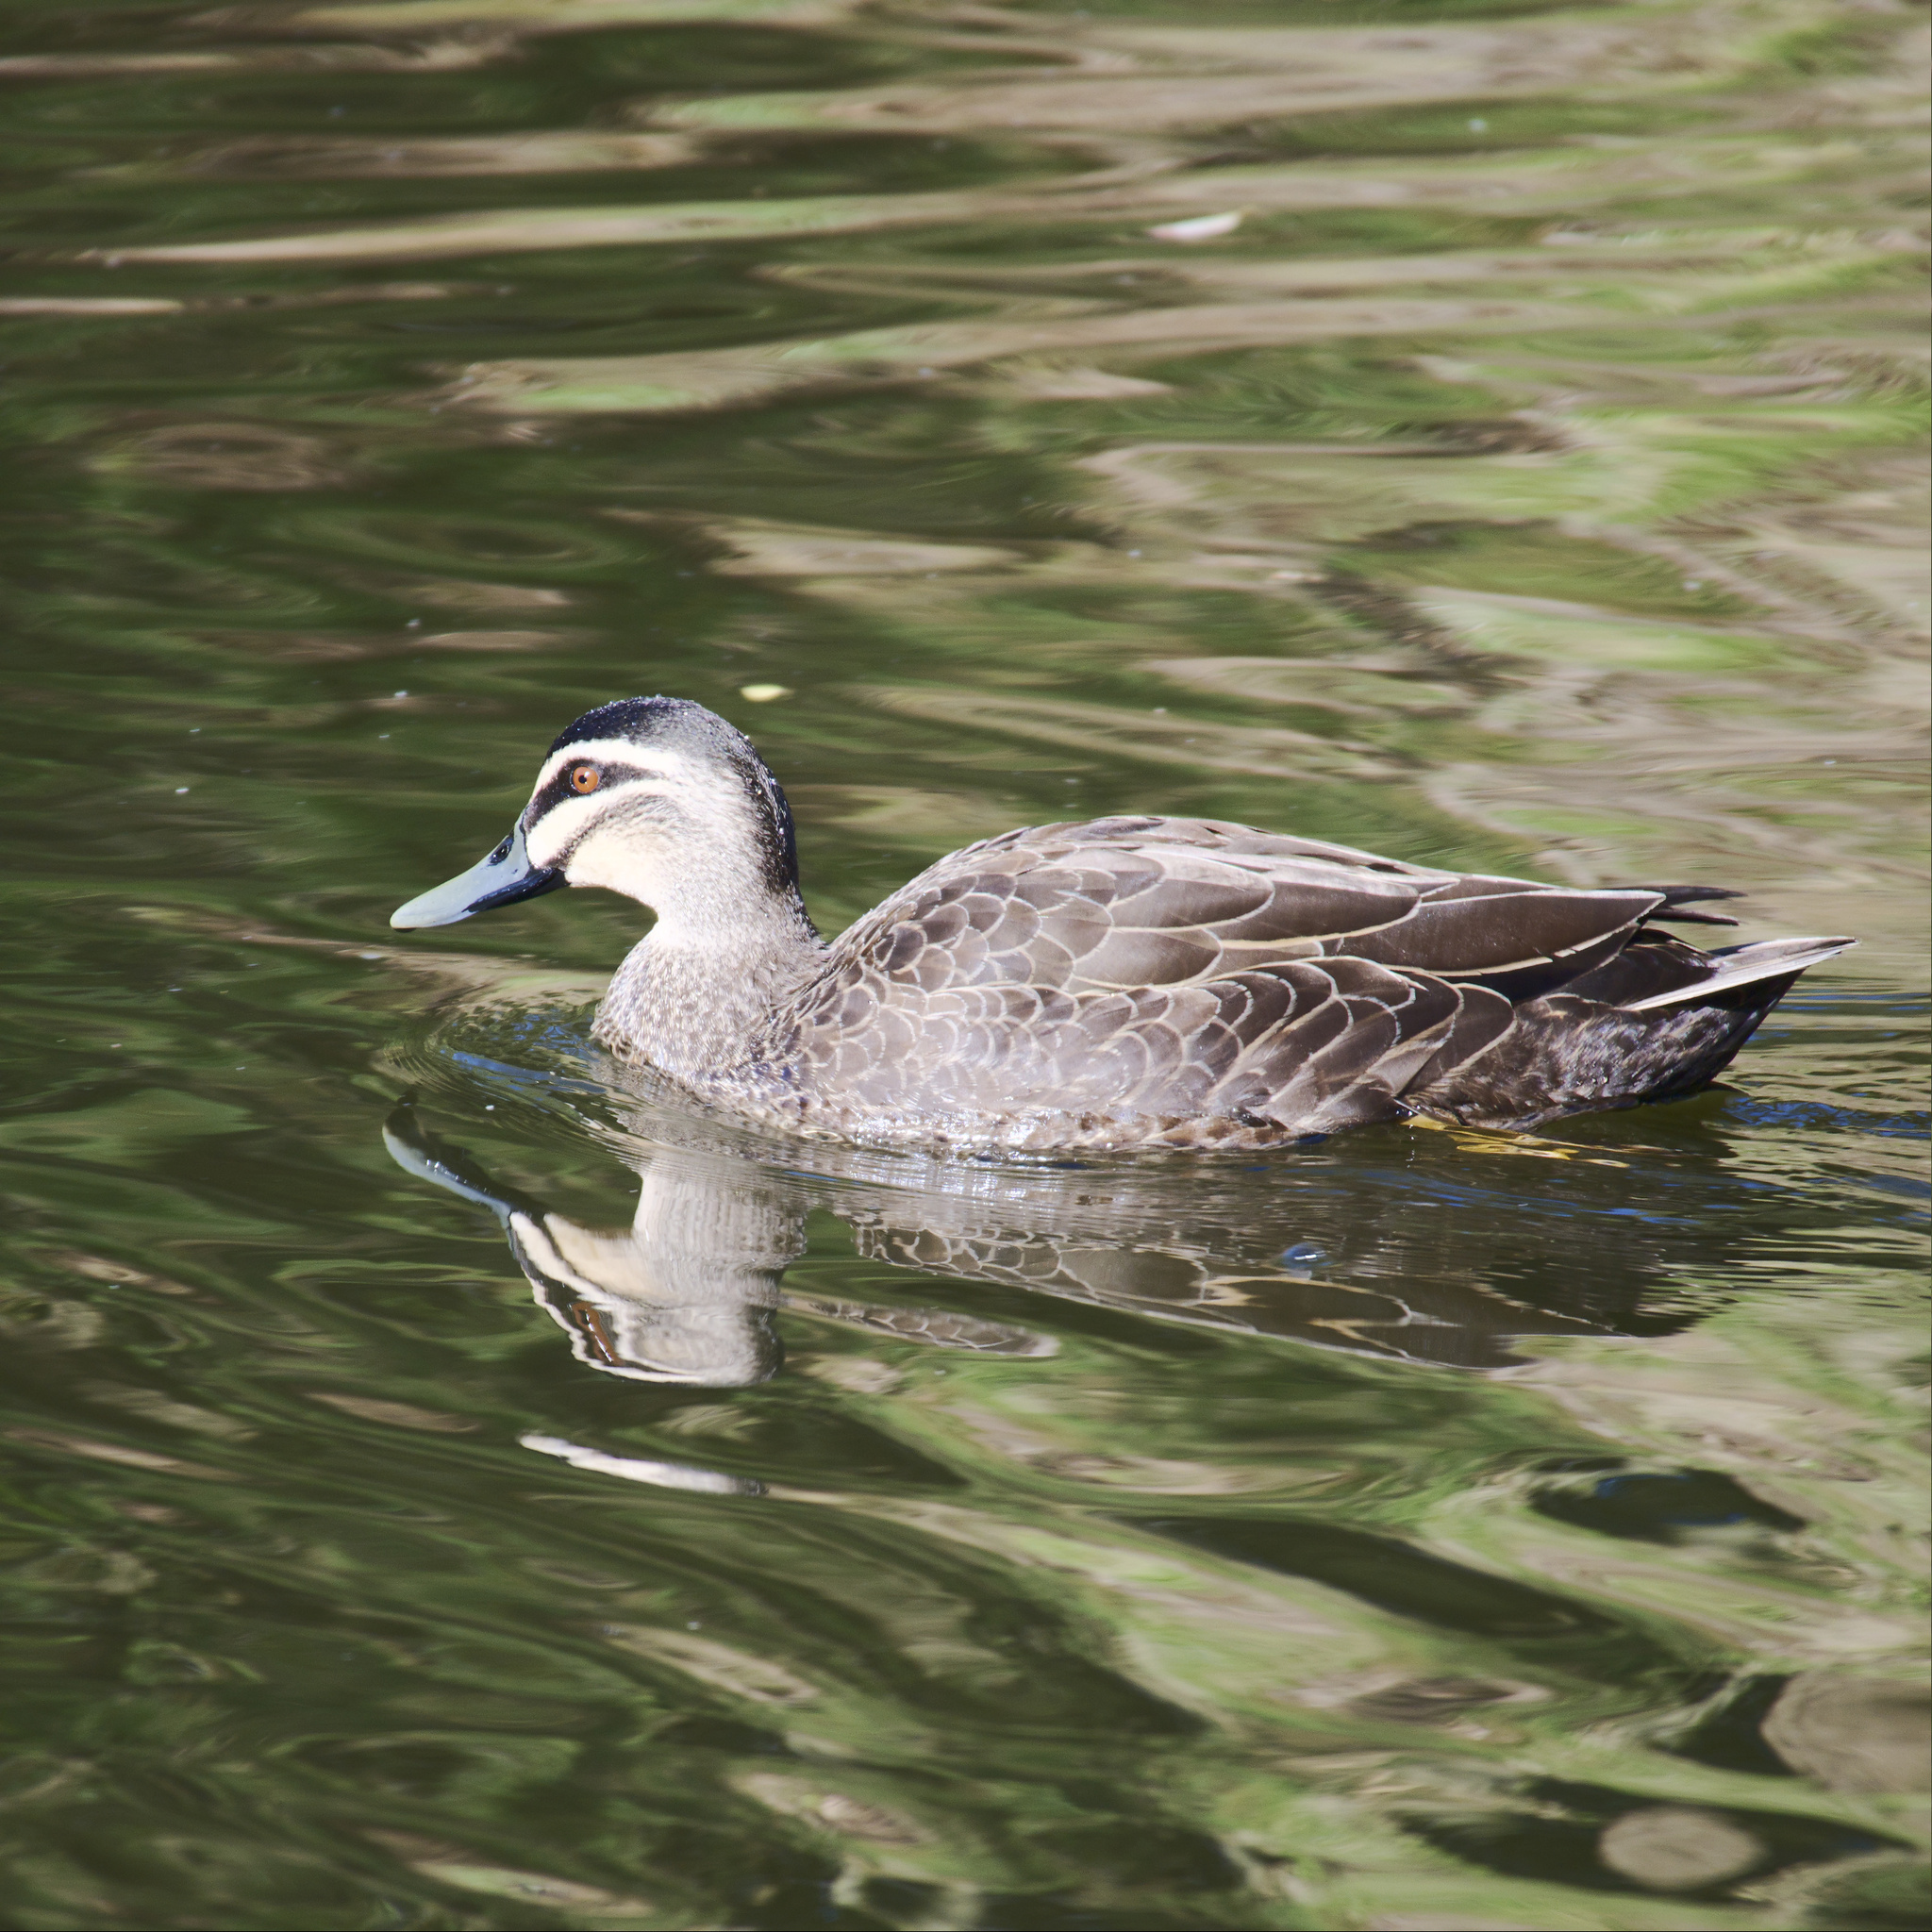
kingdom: Animalia
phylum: Chordata
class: Aves
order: Anseriformes
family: Anatidae
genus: Anas
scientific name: Anas superciliosa
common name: Pacific black duck
